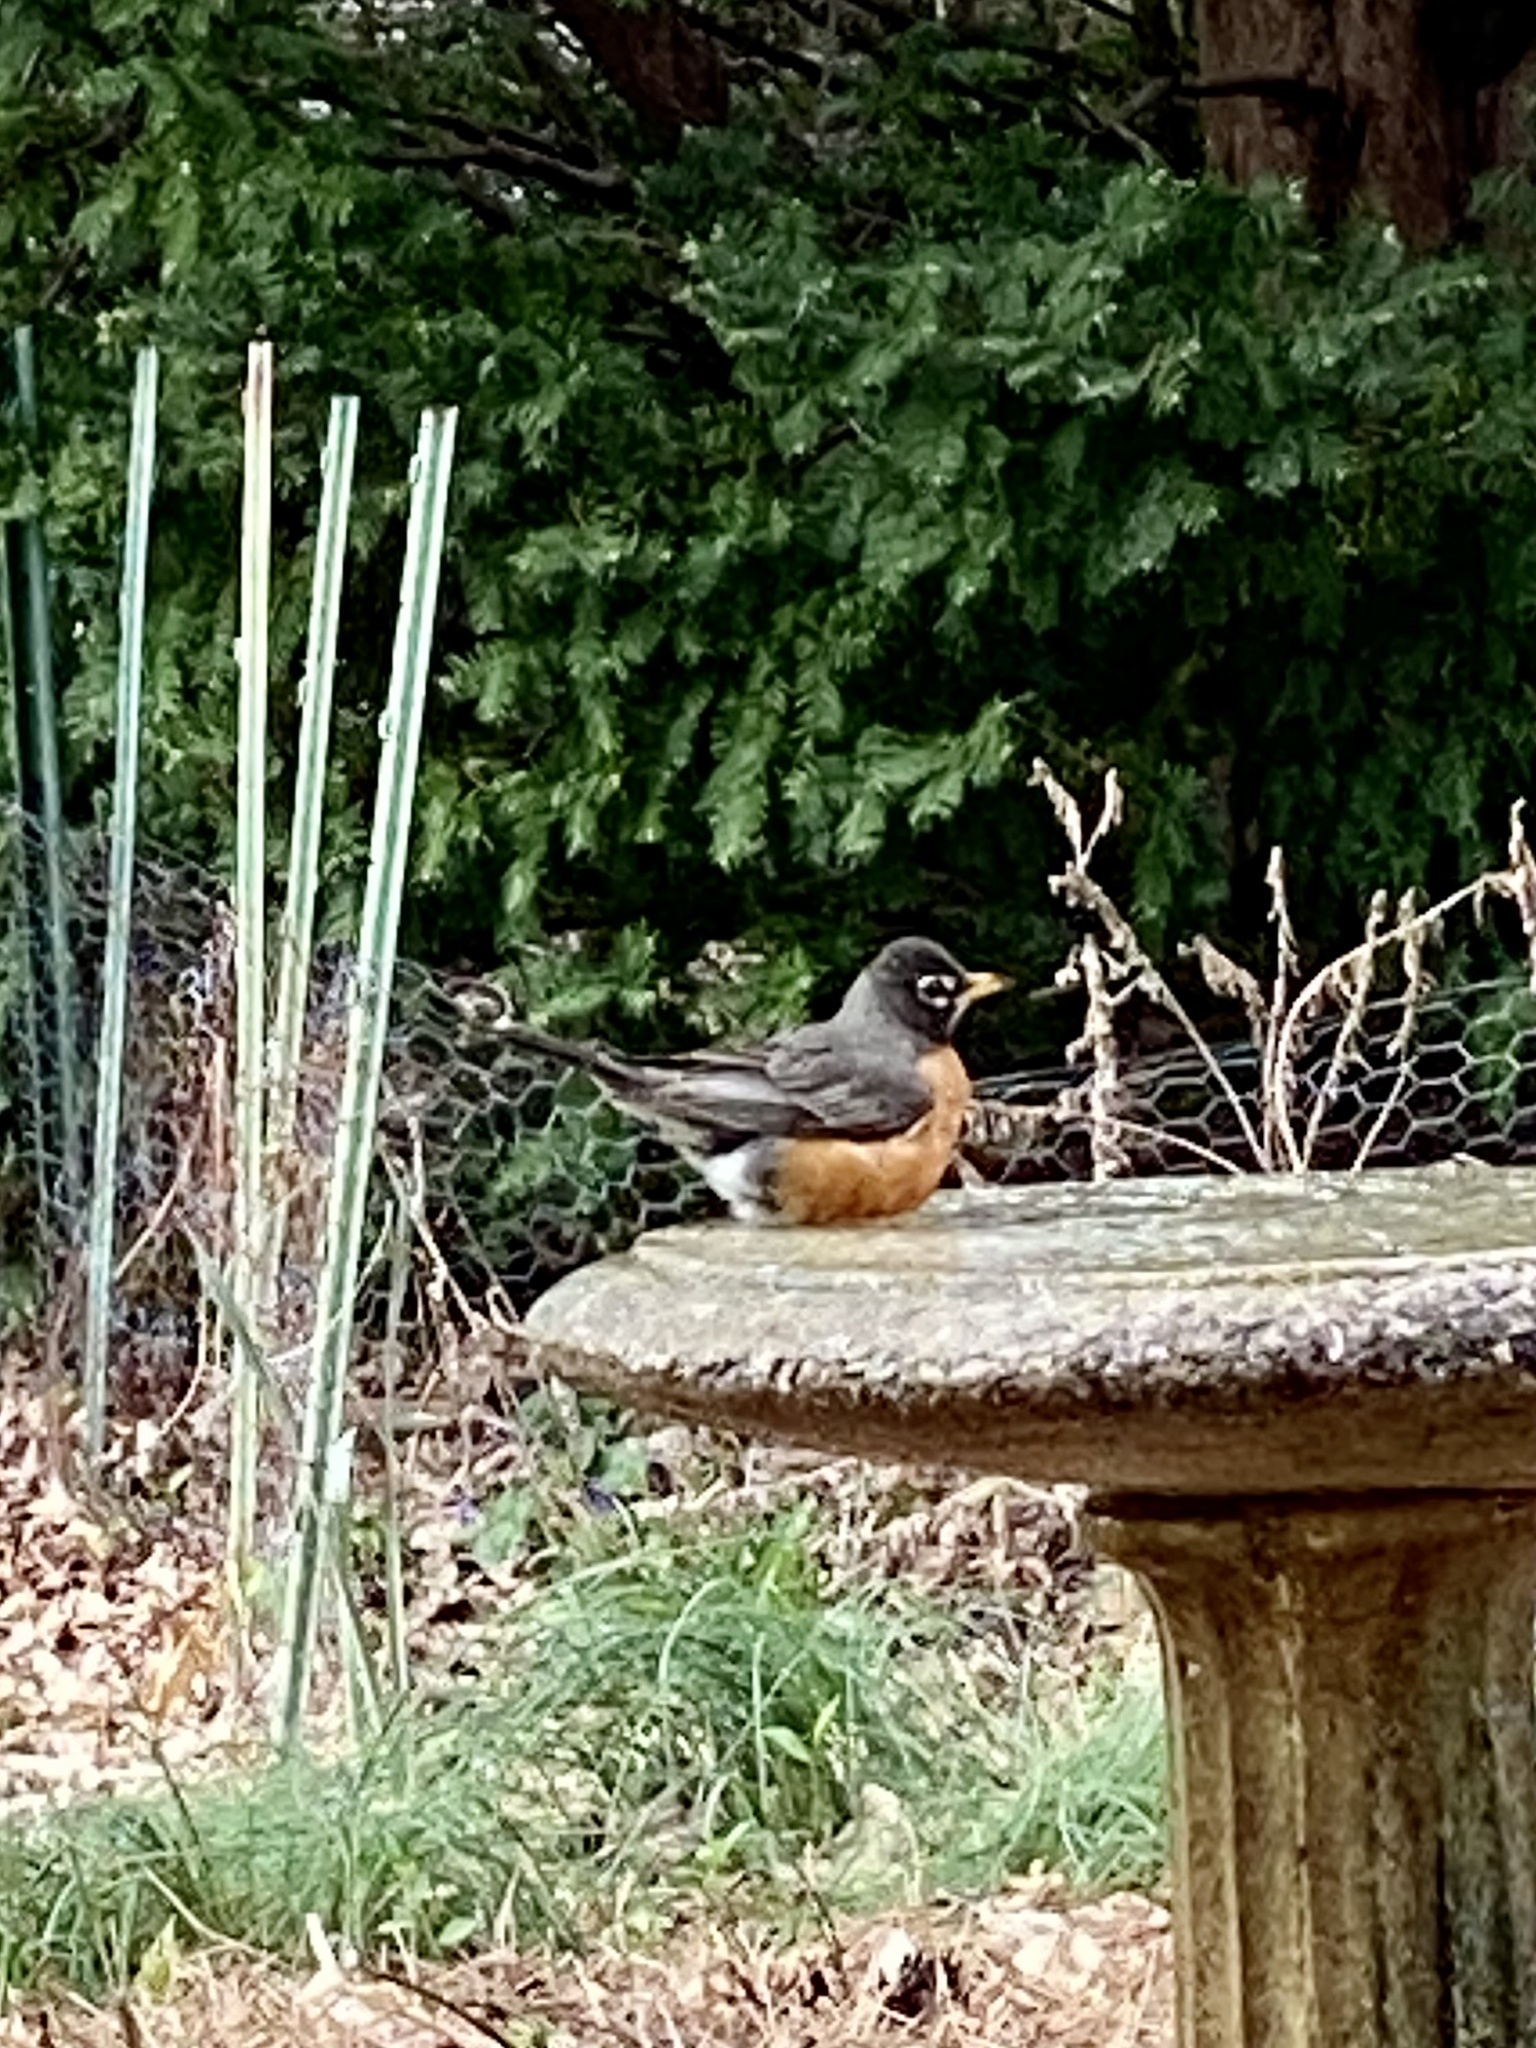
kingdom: Animalia
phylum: Chordata
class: Aves
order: Passeriformes
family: Turdidae
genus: Turdus
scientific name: Turdus migratorius
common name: American robin
